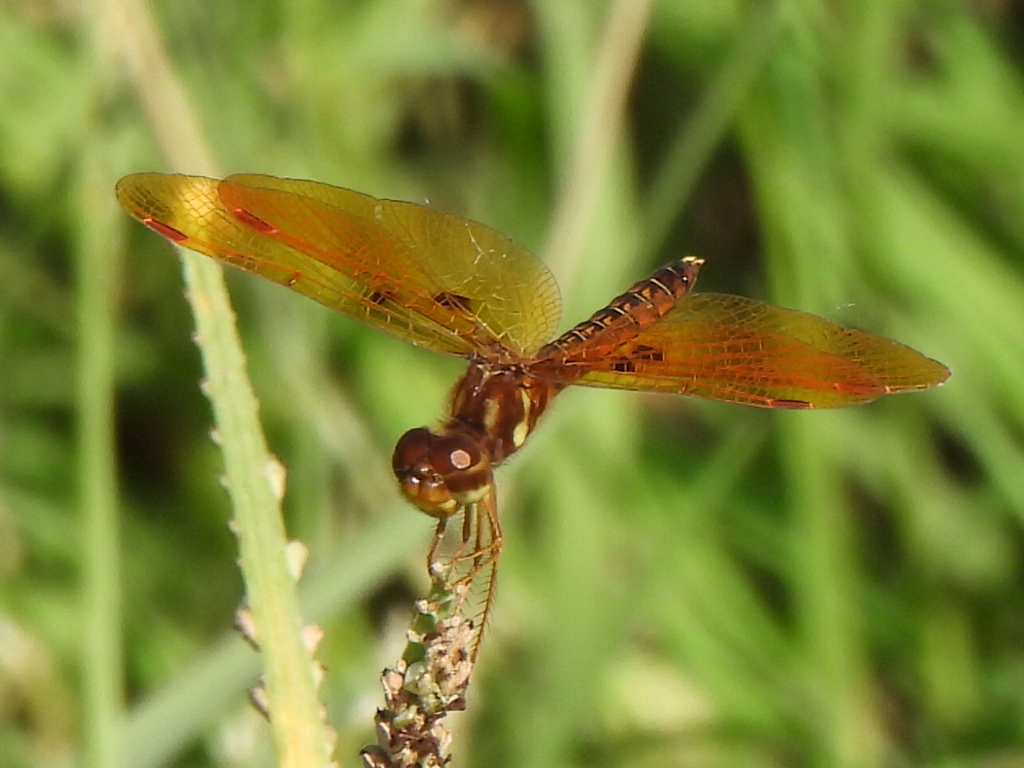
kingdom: Animalia
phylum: Arthropoda
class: Insecta
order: Odonata
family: Libellulidae
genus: Perithemis
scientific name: Perithemis tenera
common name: Eastern amberwing
